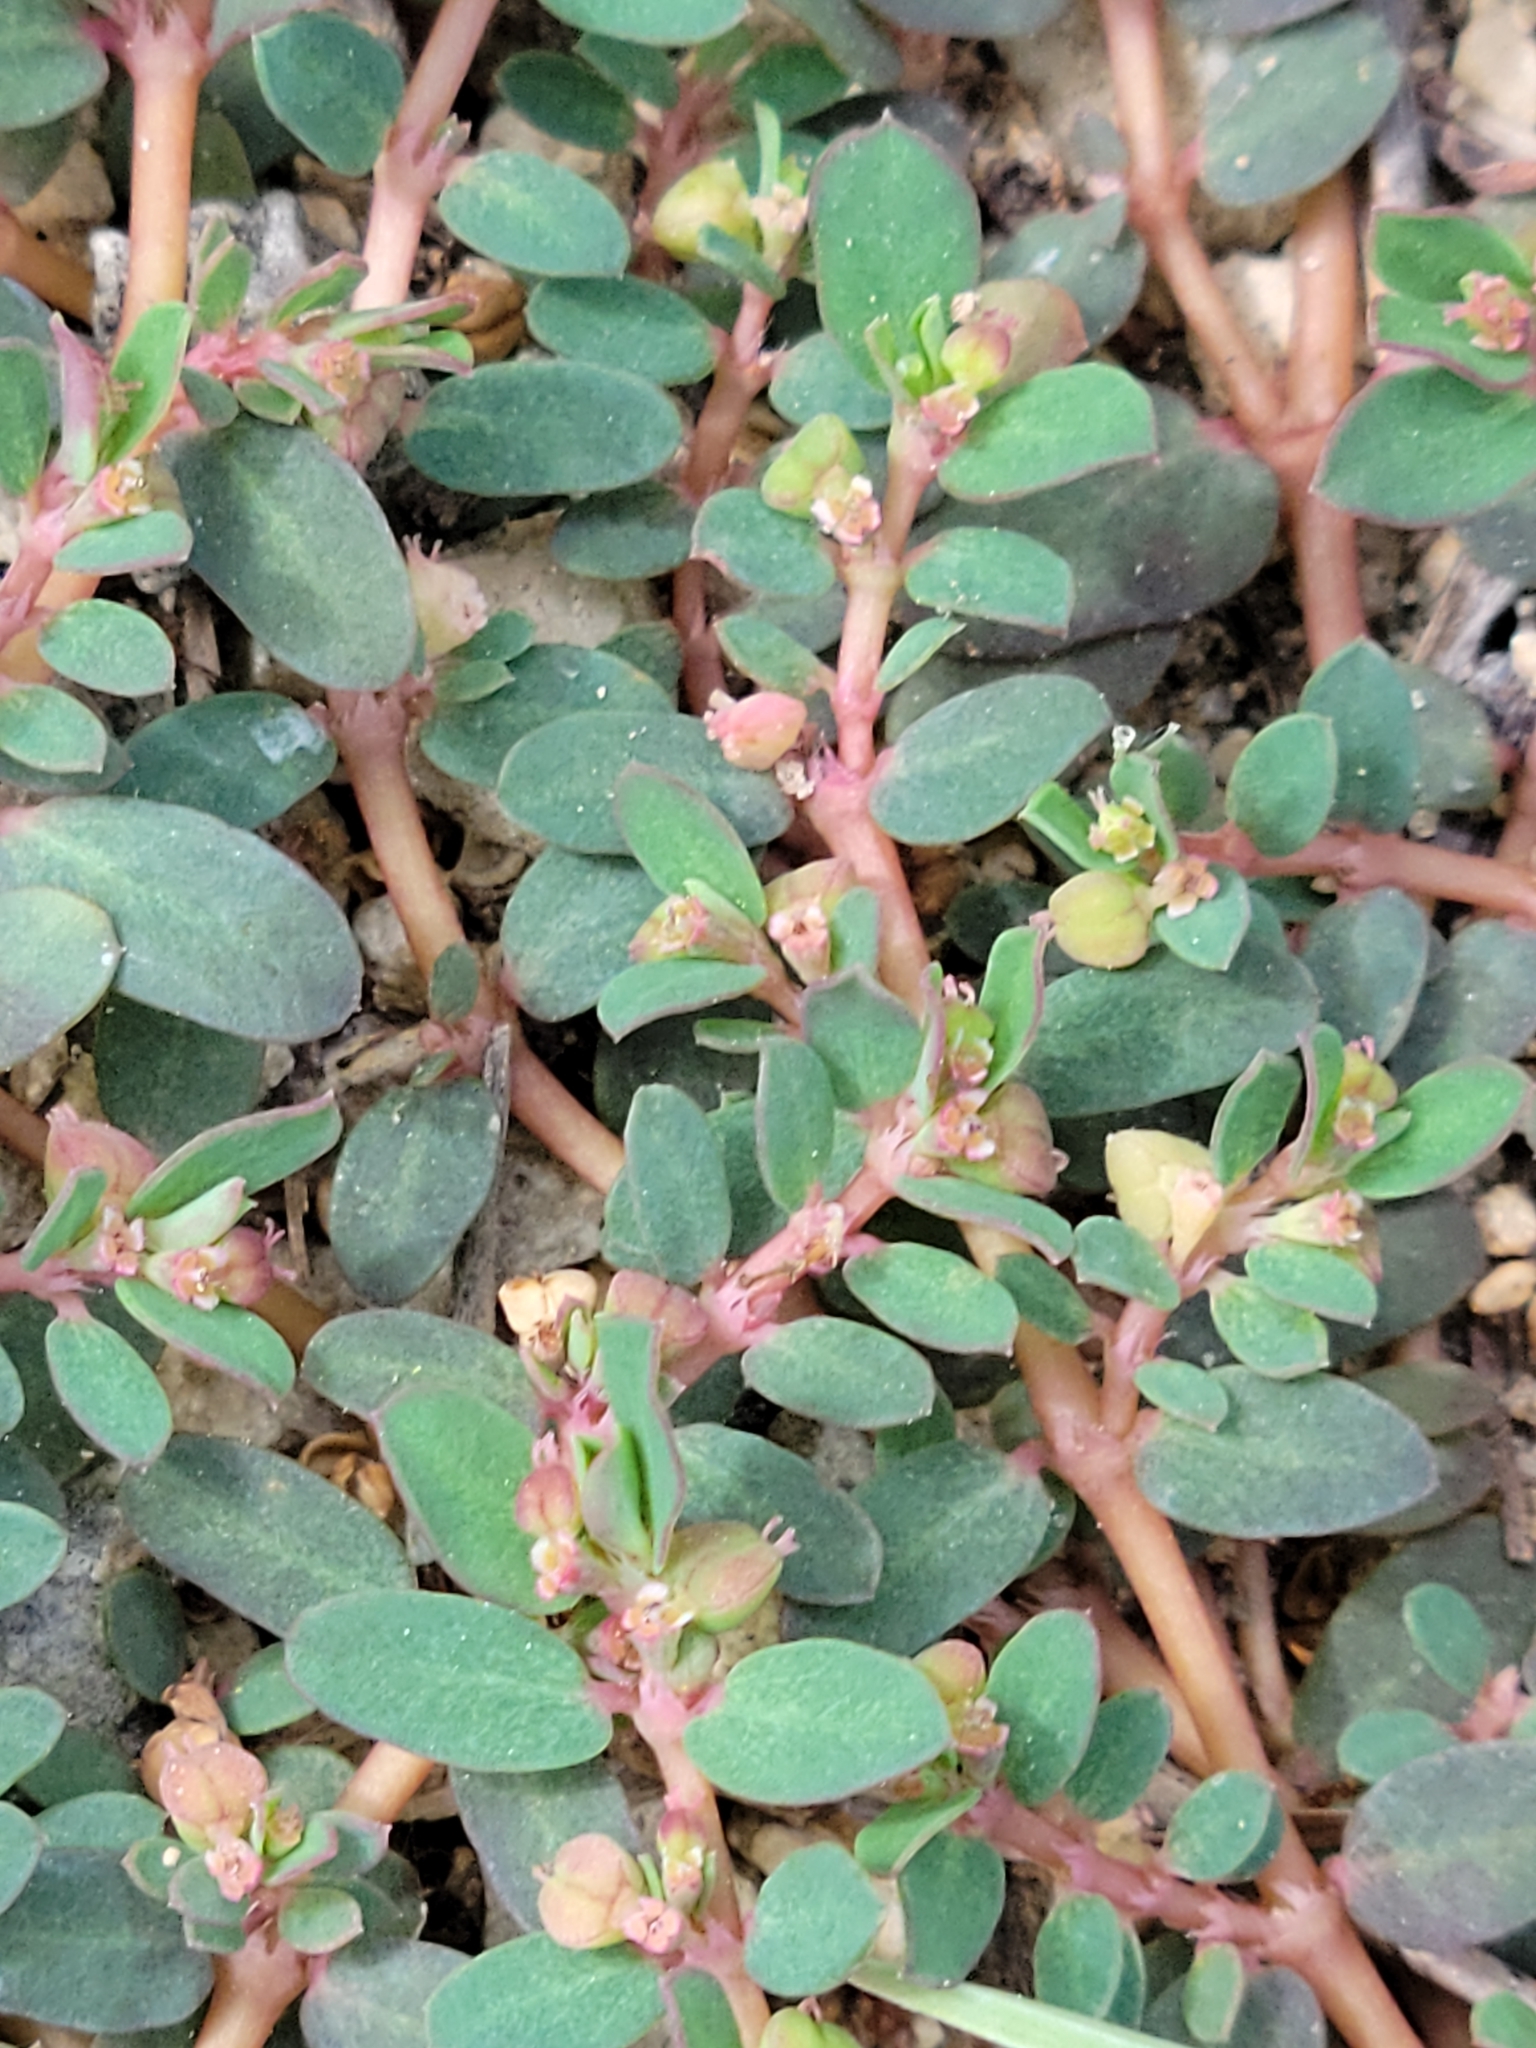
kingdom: Plantae
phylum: Tracheophyta
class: Magnoliopsida
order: Malpighiales
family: Euphorbiaceae
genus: Euphorbia
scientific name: Euphorbia blodgettii
